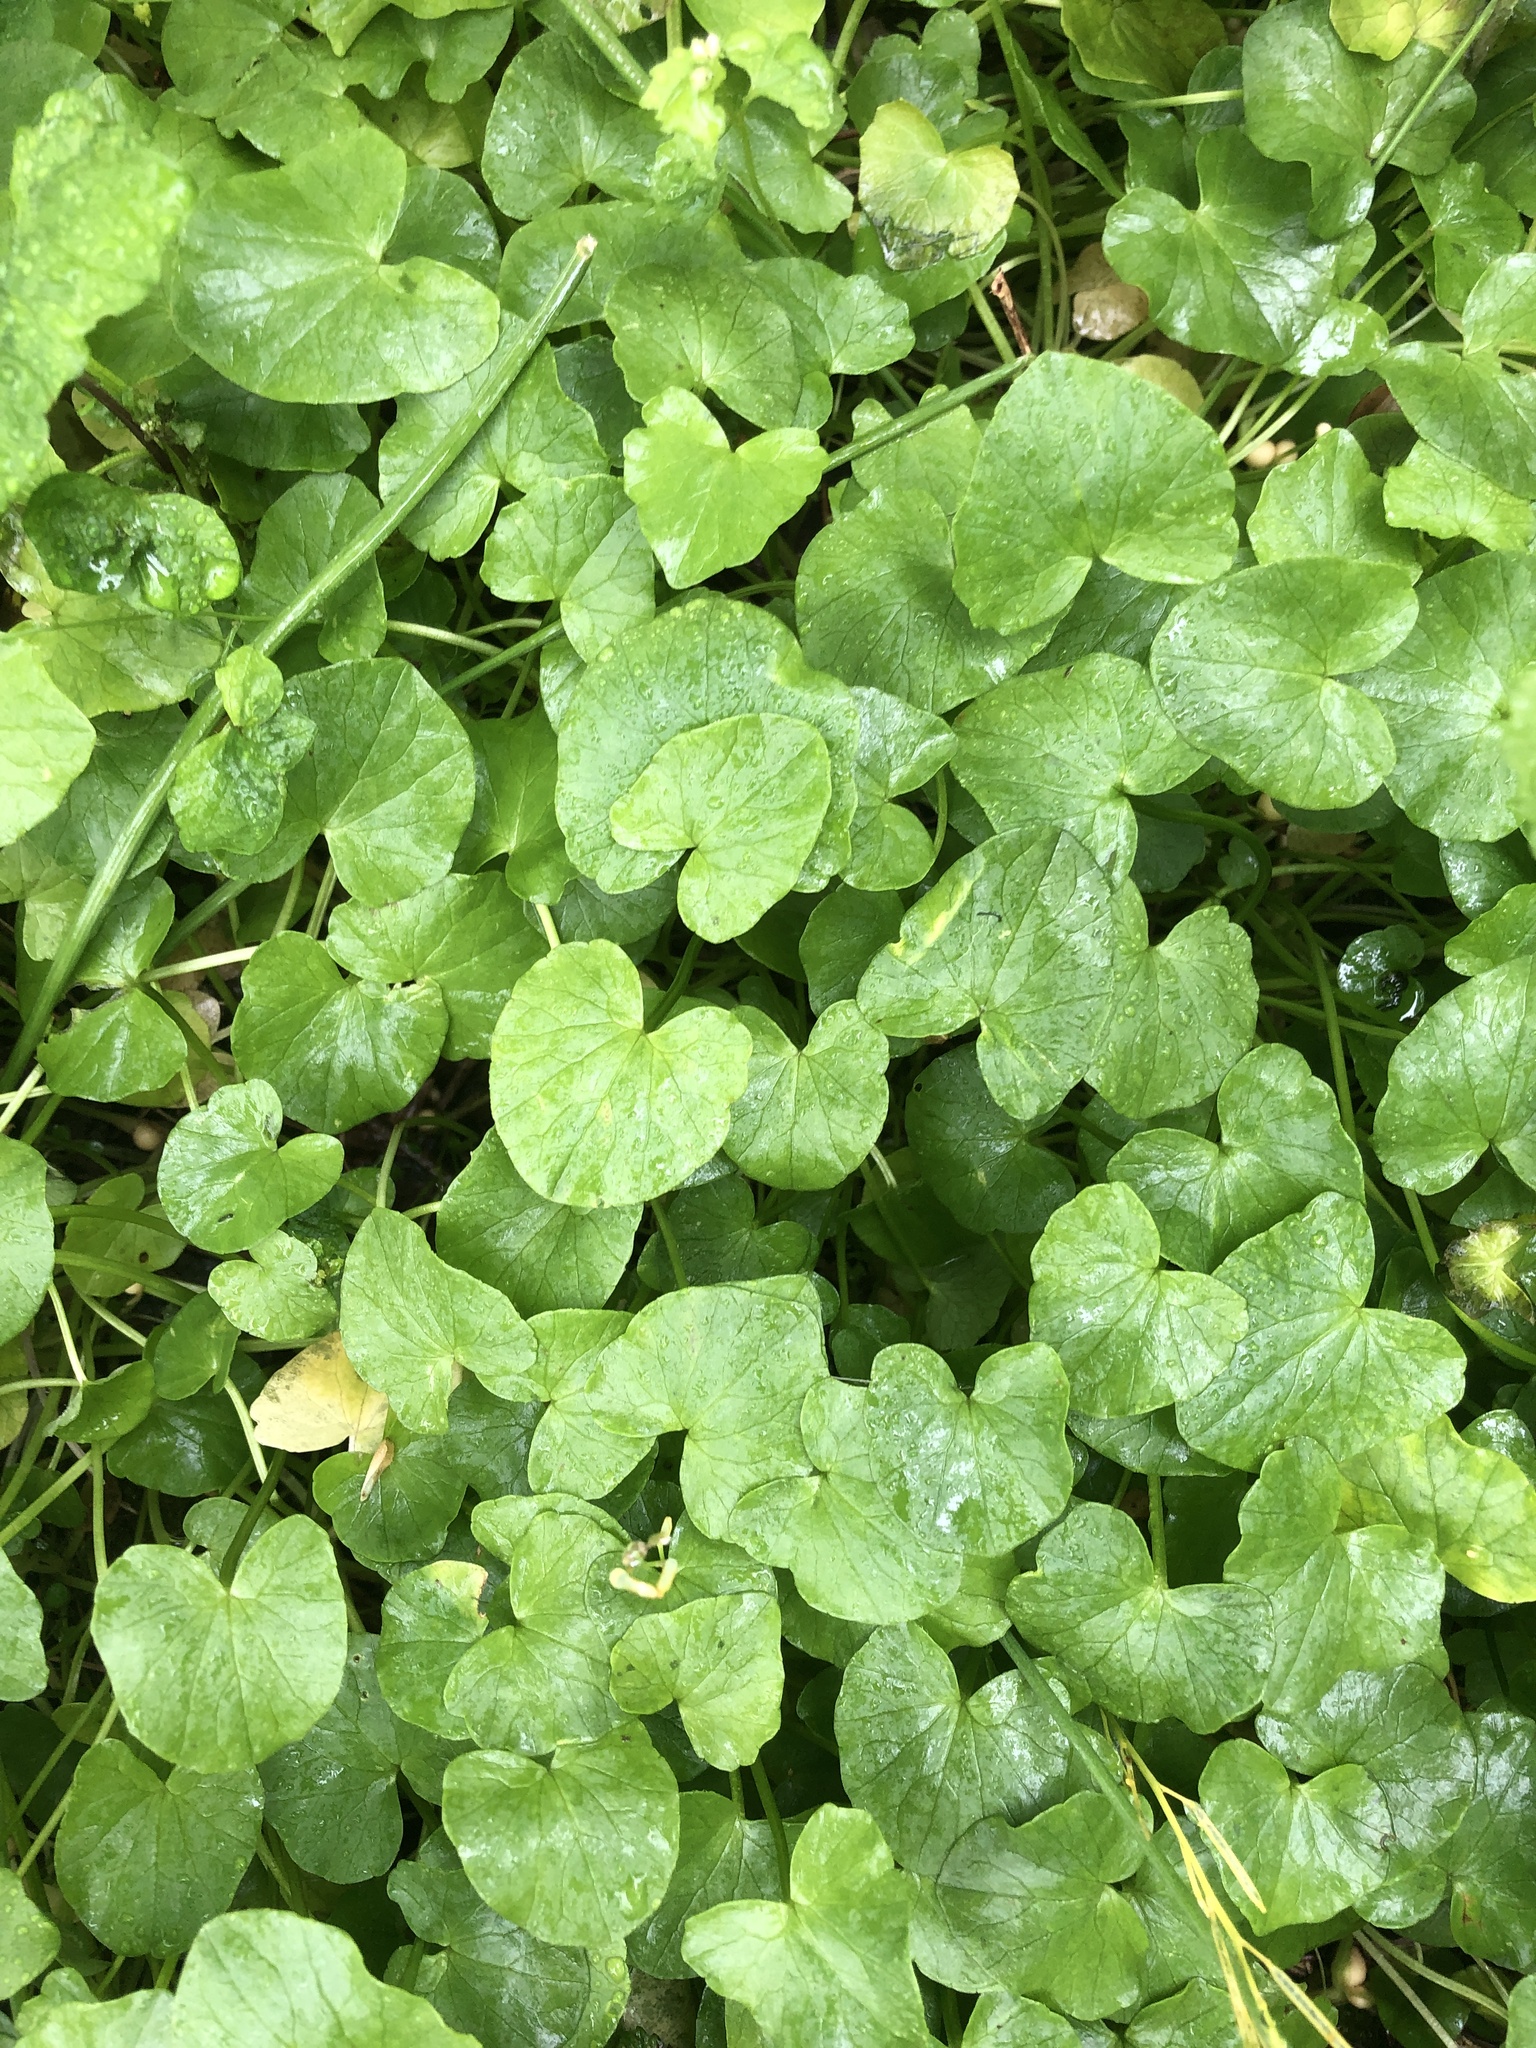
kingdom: Plantae
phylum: Tracheophyta
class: Magnoliopsida
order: Ranunculales
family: Ranunculaceae
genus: Ficaria
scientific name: Ficaria verna
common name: Lesser celandine
